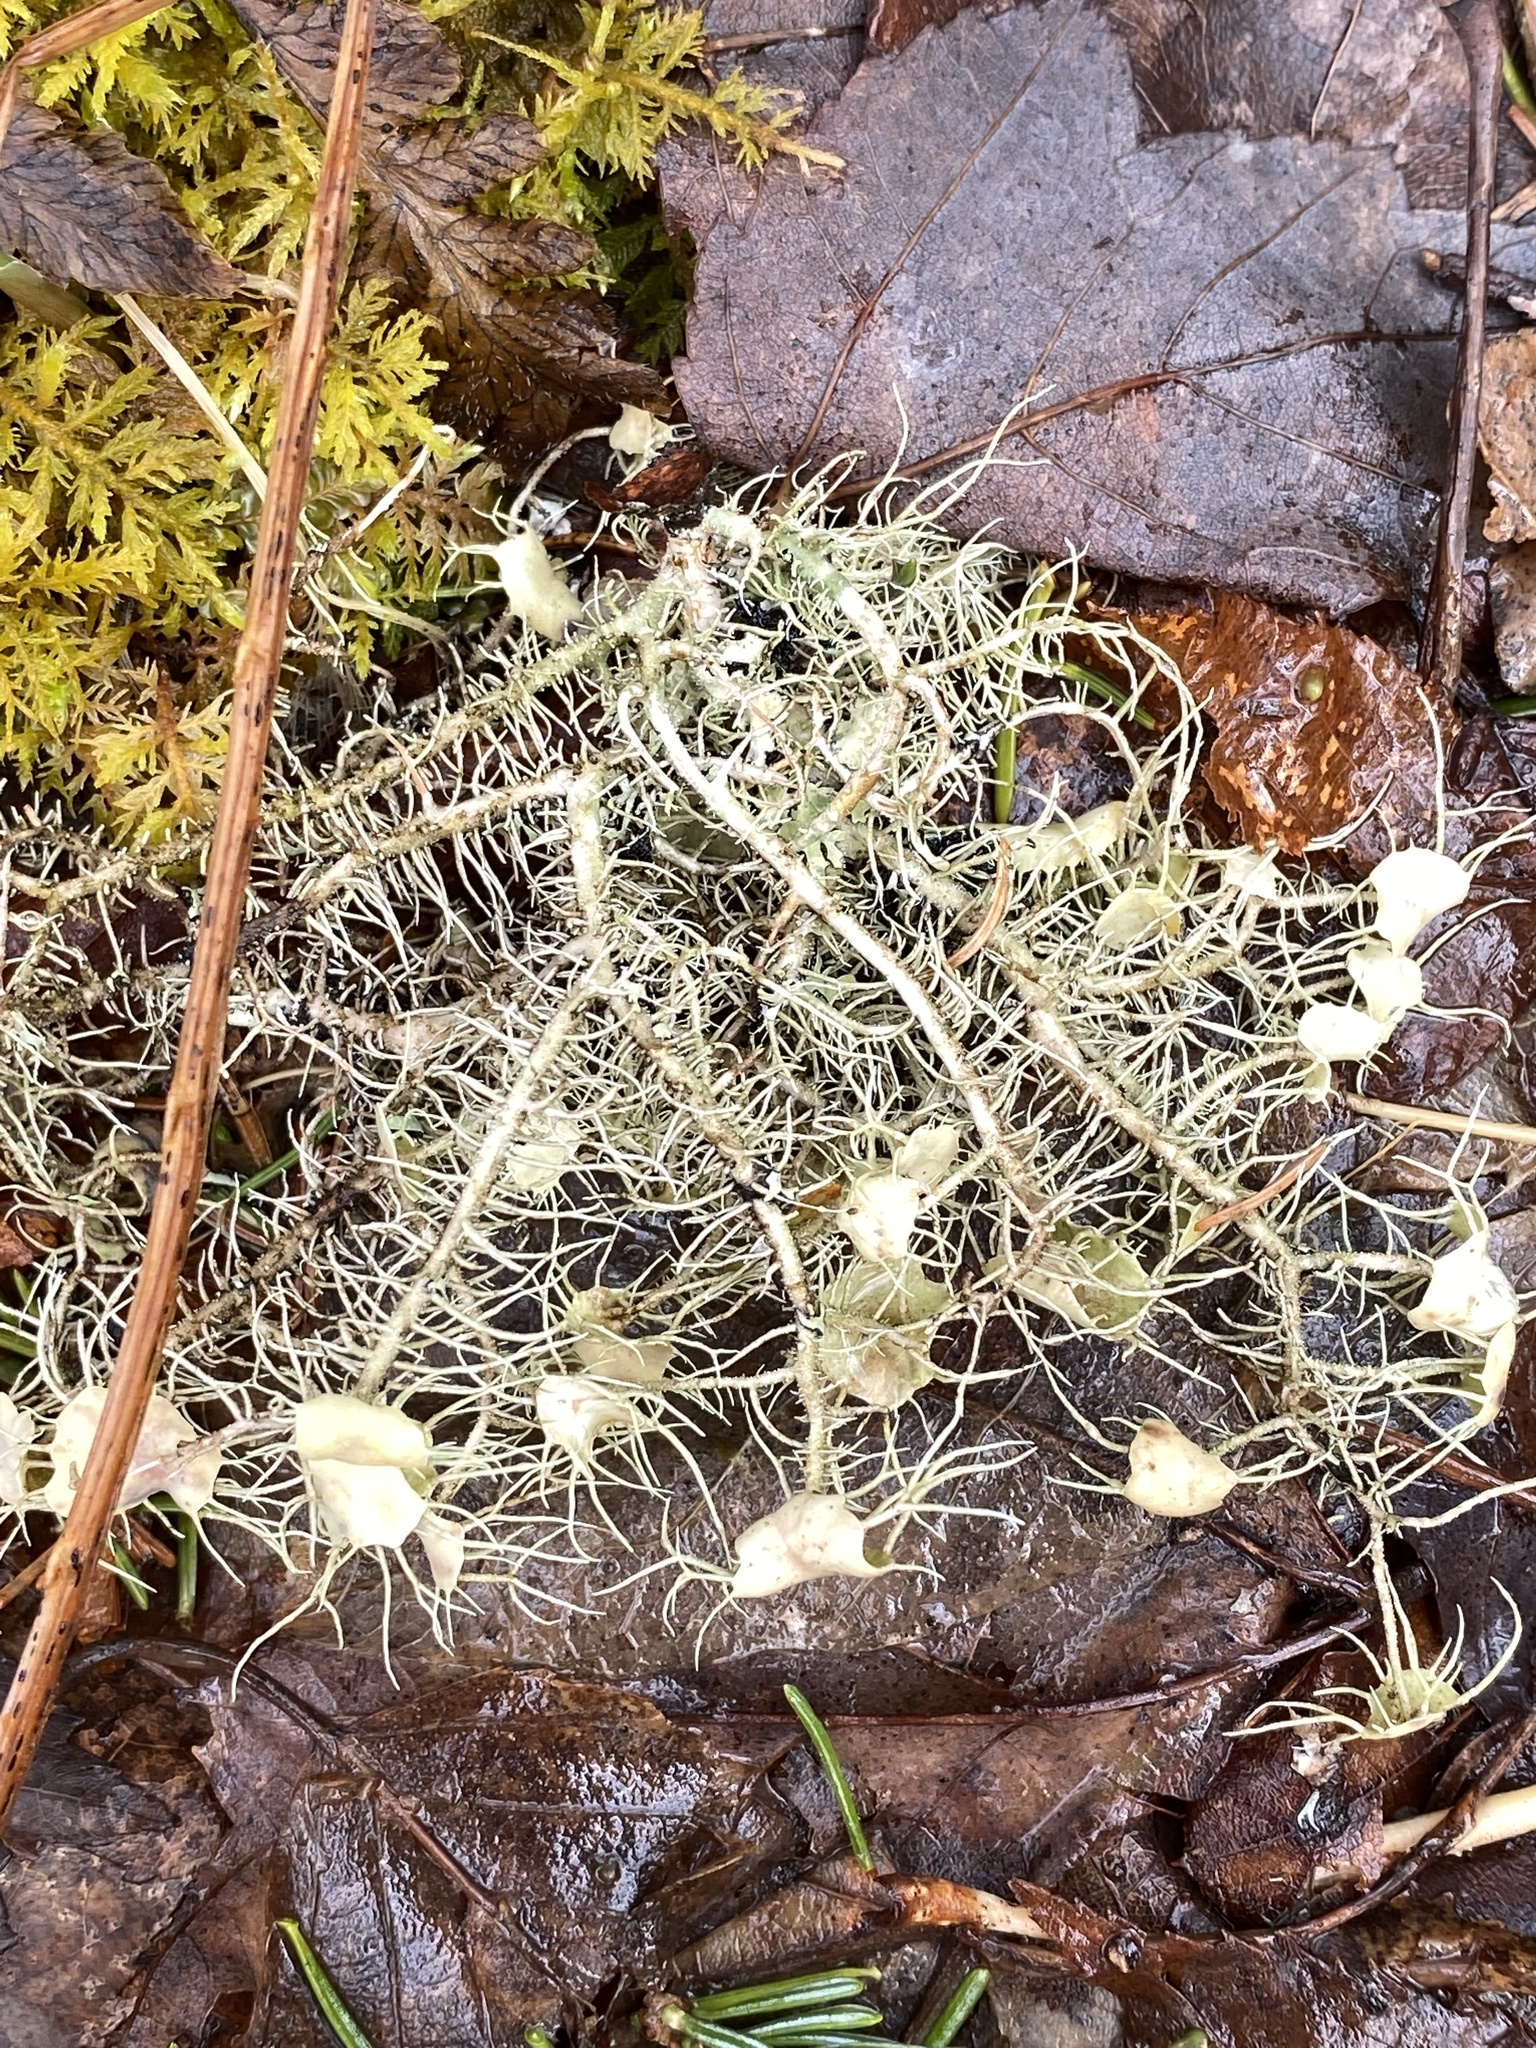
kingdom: Fungi
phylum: Ascomycota
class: Lecanoromycetes
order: Lecanorales
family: Parmeliaceae
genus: Usnea
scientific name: Usnea strigosa
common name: Bushy beard lichen
